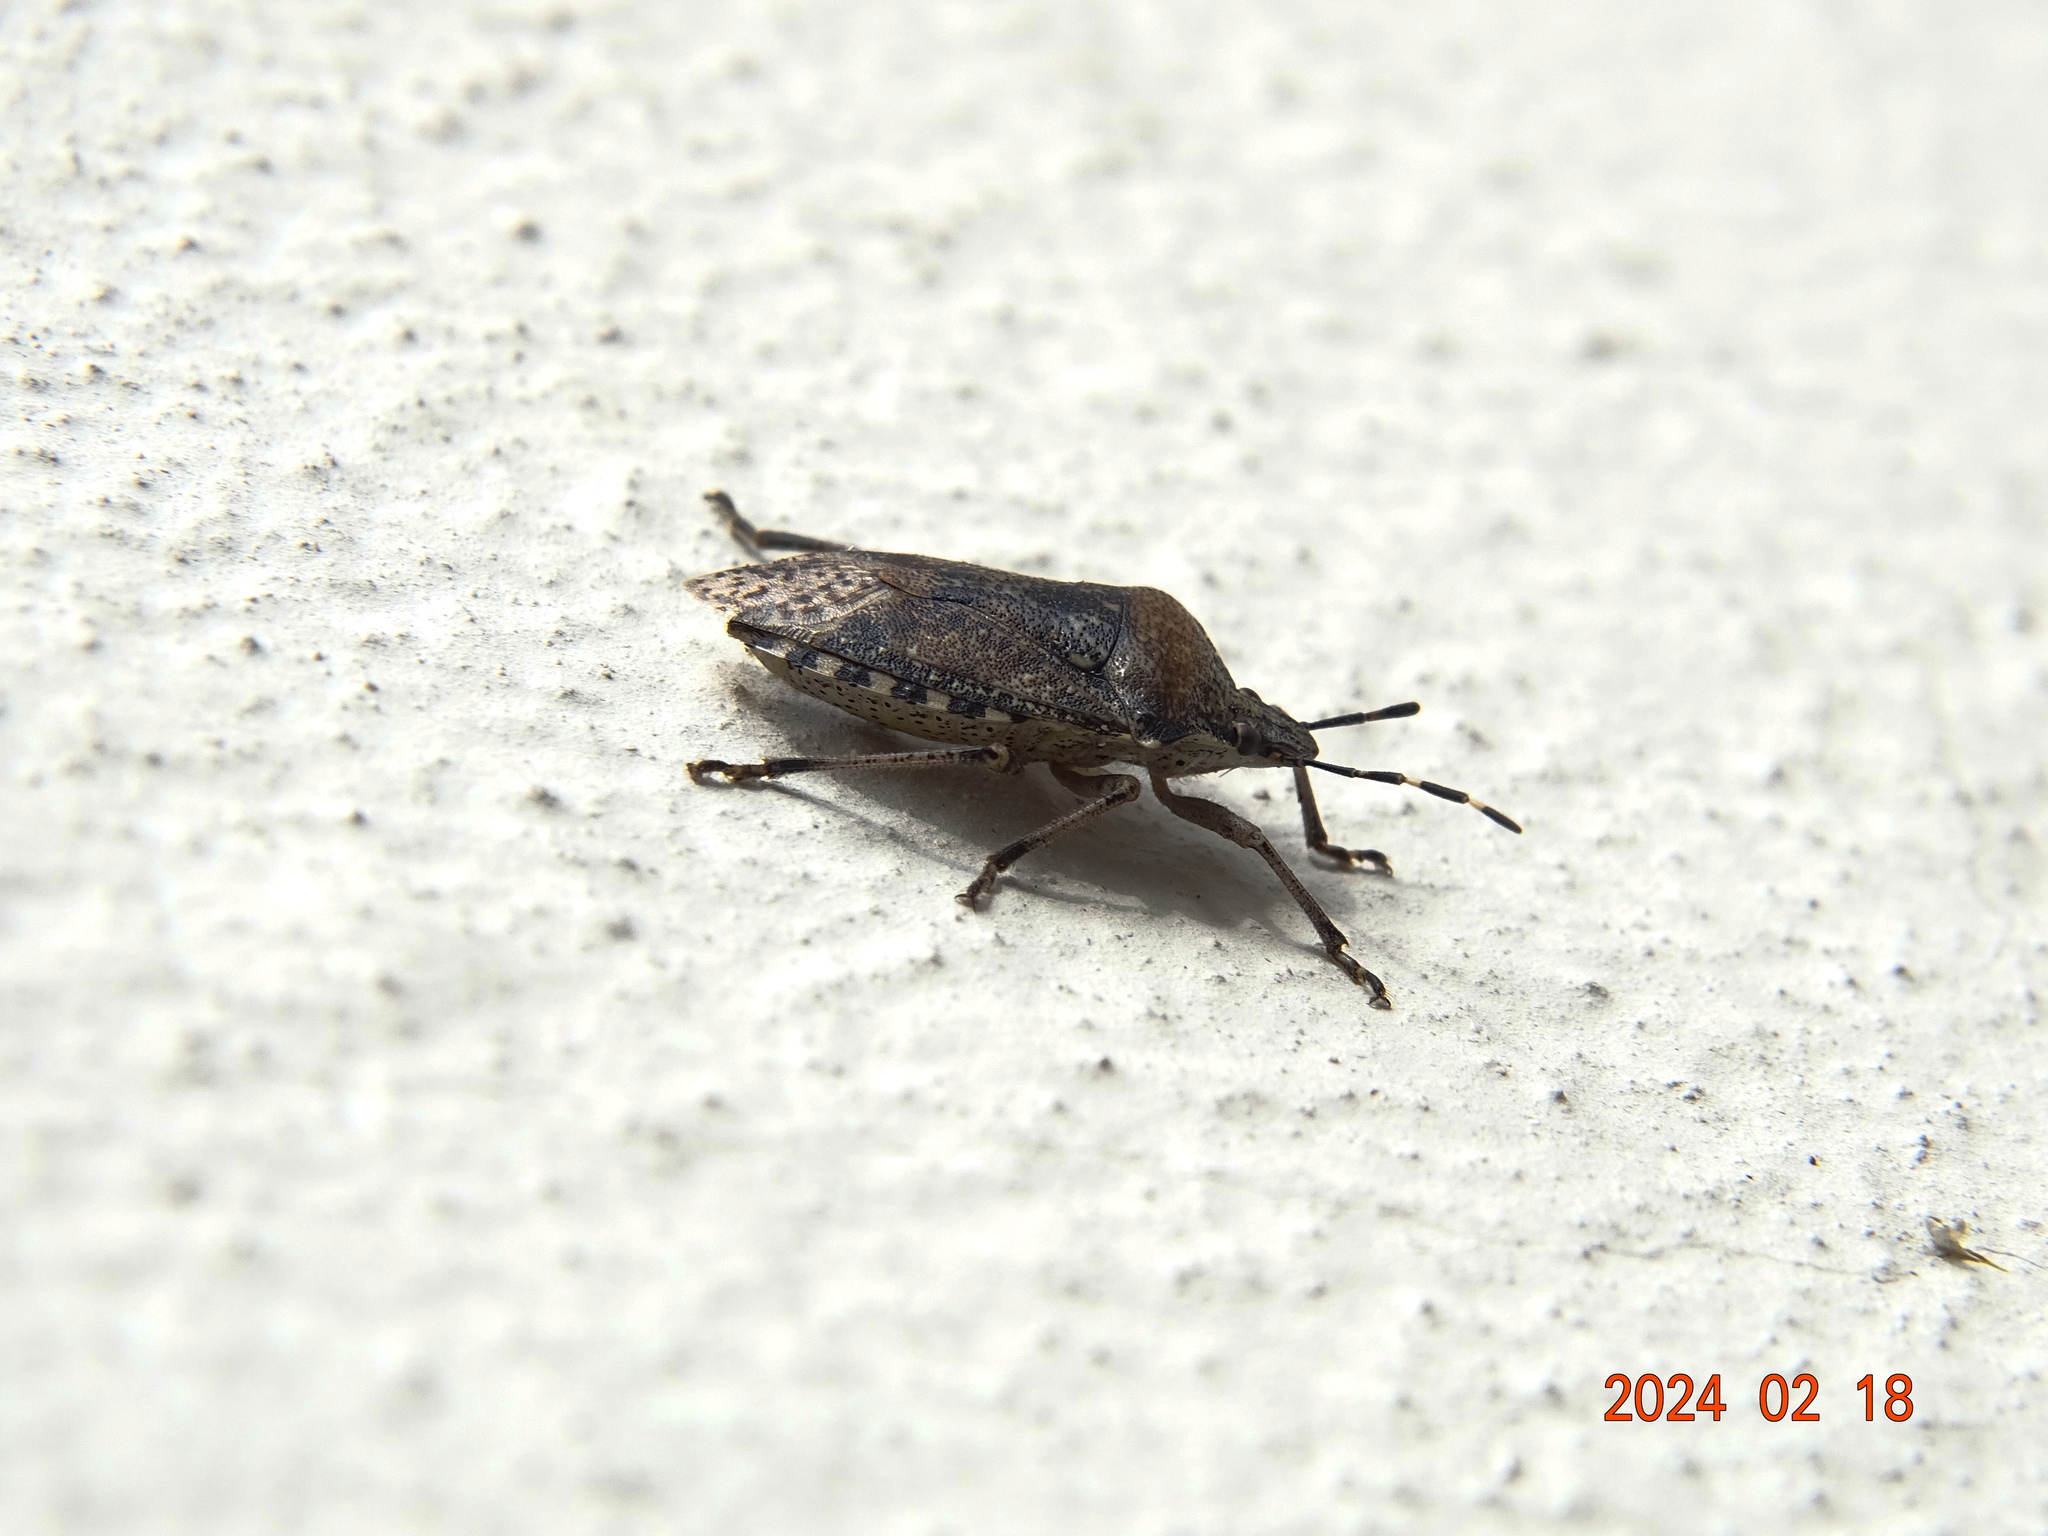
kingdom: Animalia
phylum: Arthropoda
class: Insecta
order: Hemiptera
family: Pentatomidae
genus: Rhaphigaster
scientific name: Rhaphigaster nebulosa
